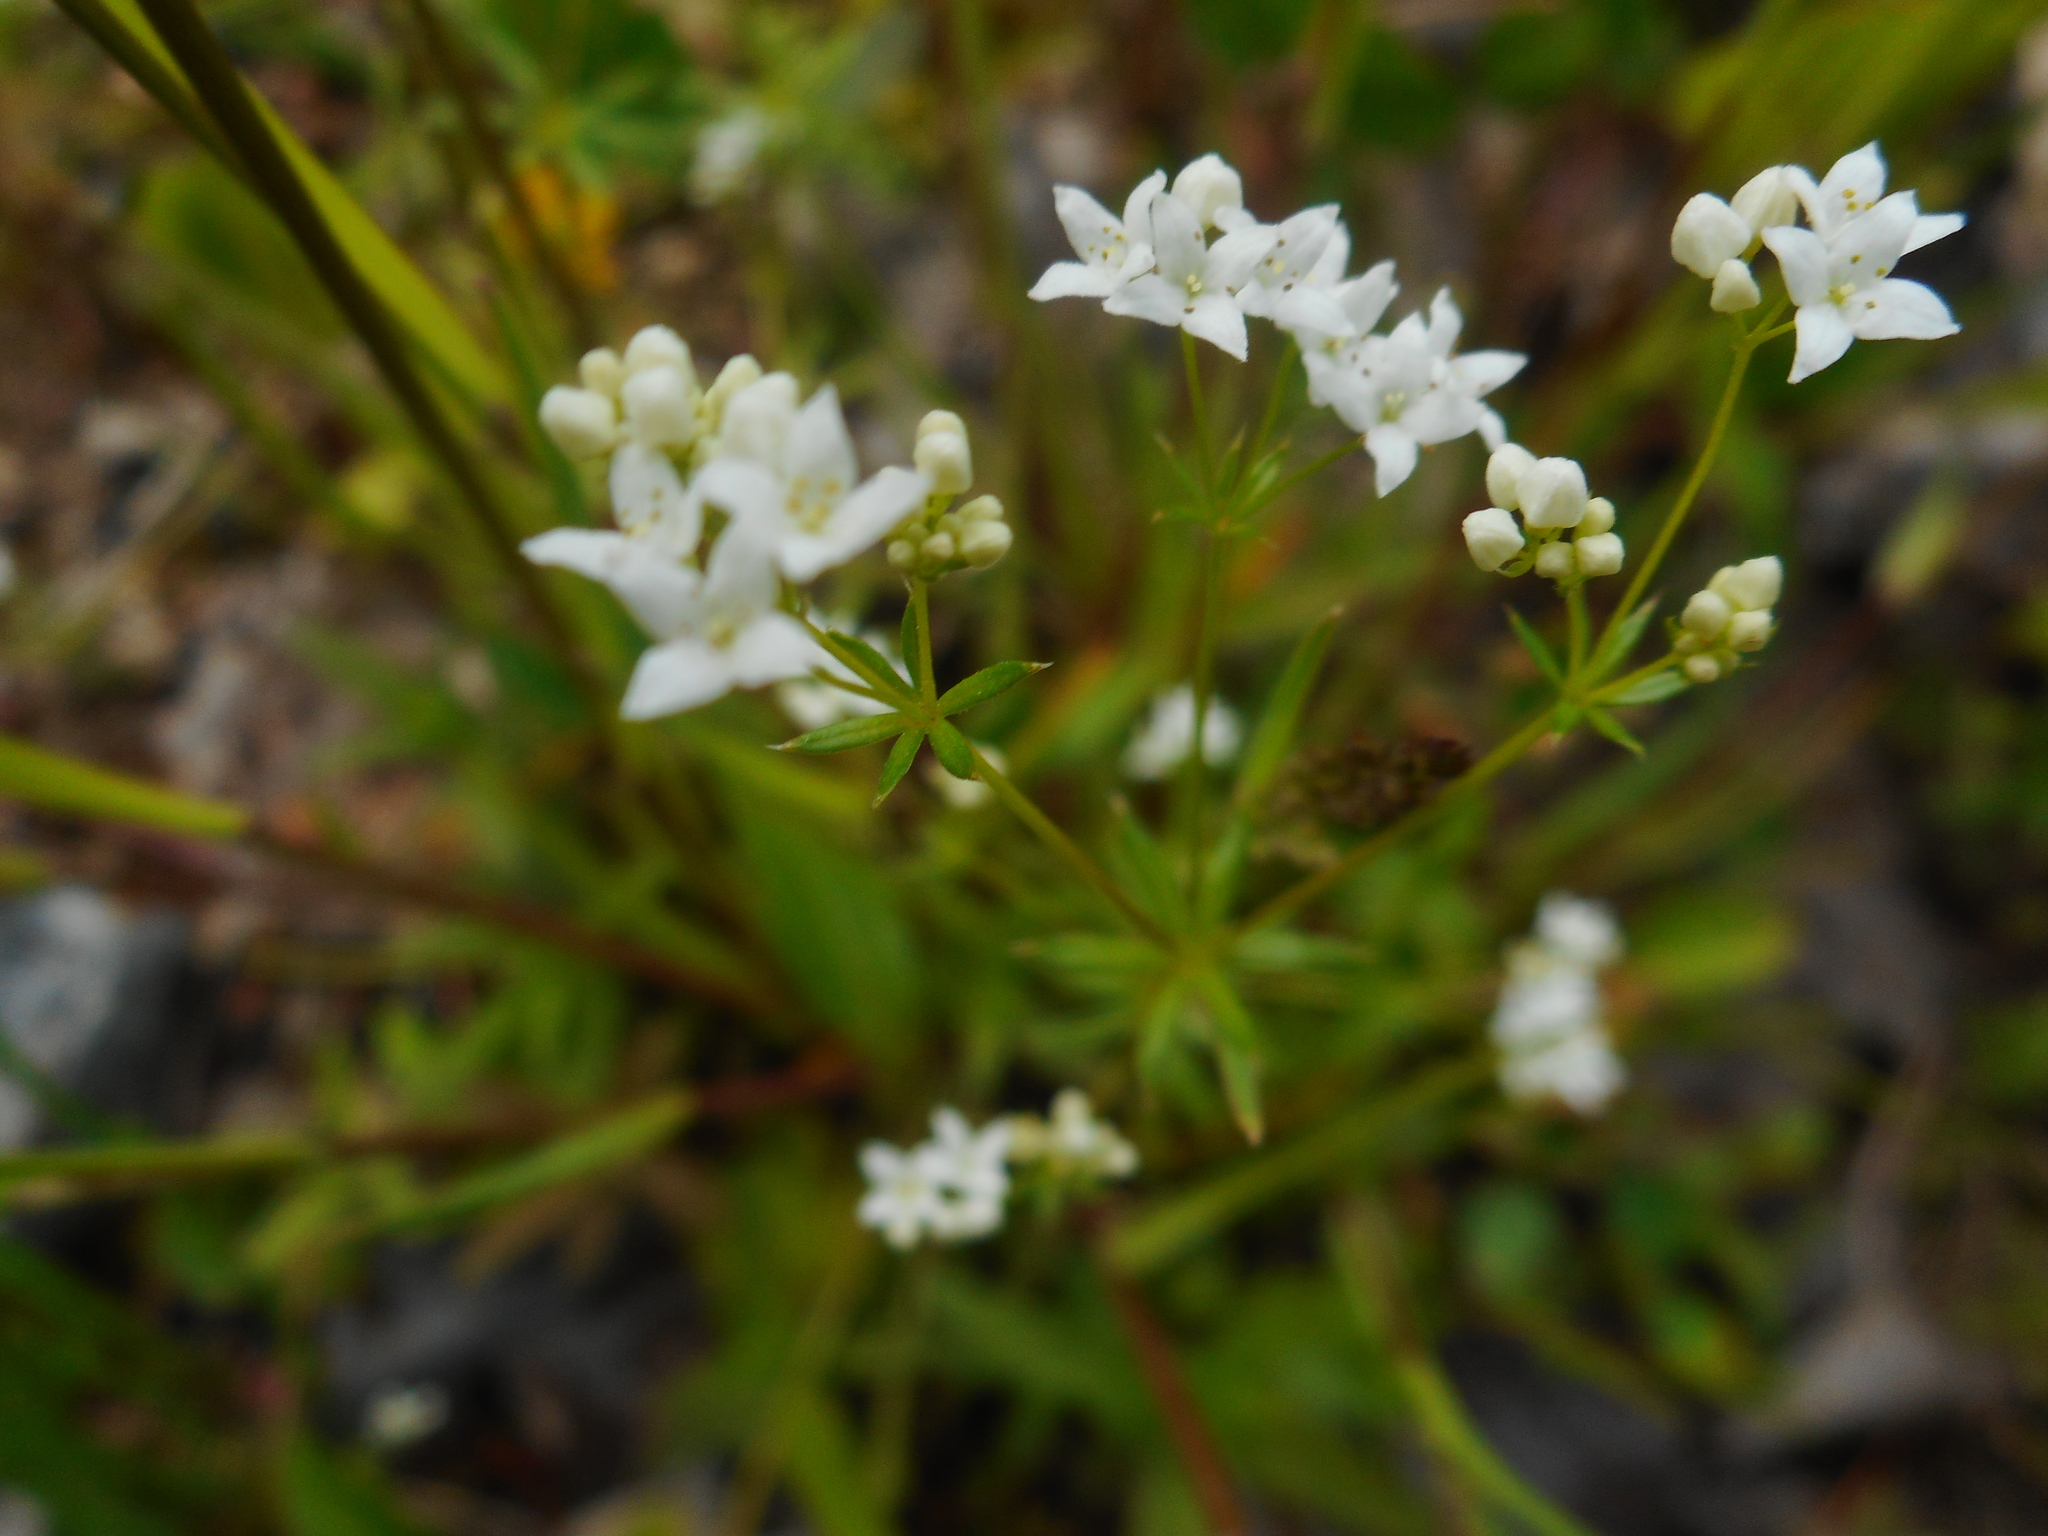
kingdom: Plantae
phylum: Tracheophyta
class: Magnoliopsida
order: Gentianales
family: Rubiaceae
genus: Galium
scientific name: Galium uliginosum
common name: Fen bedstraw
